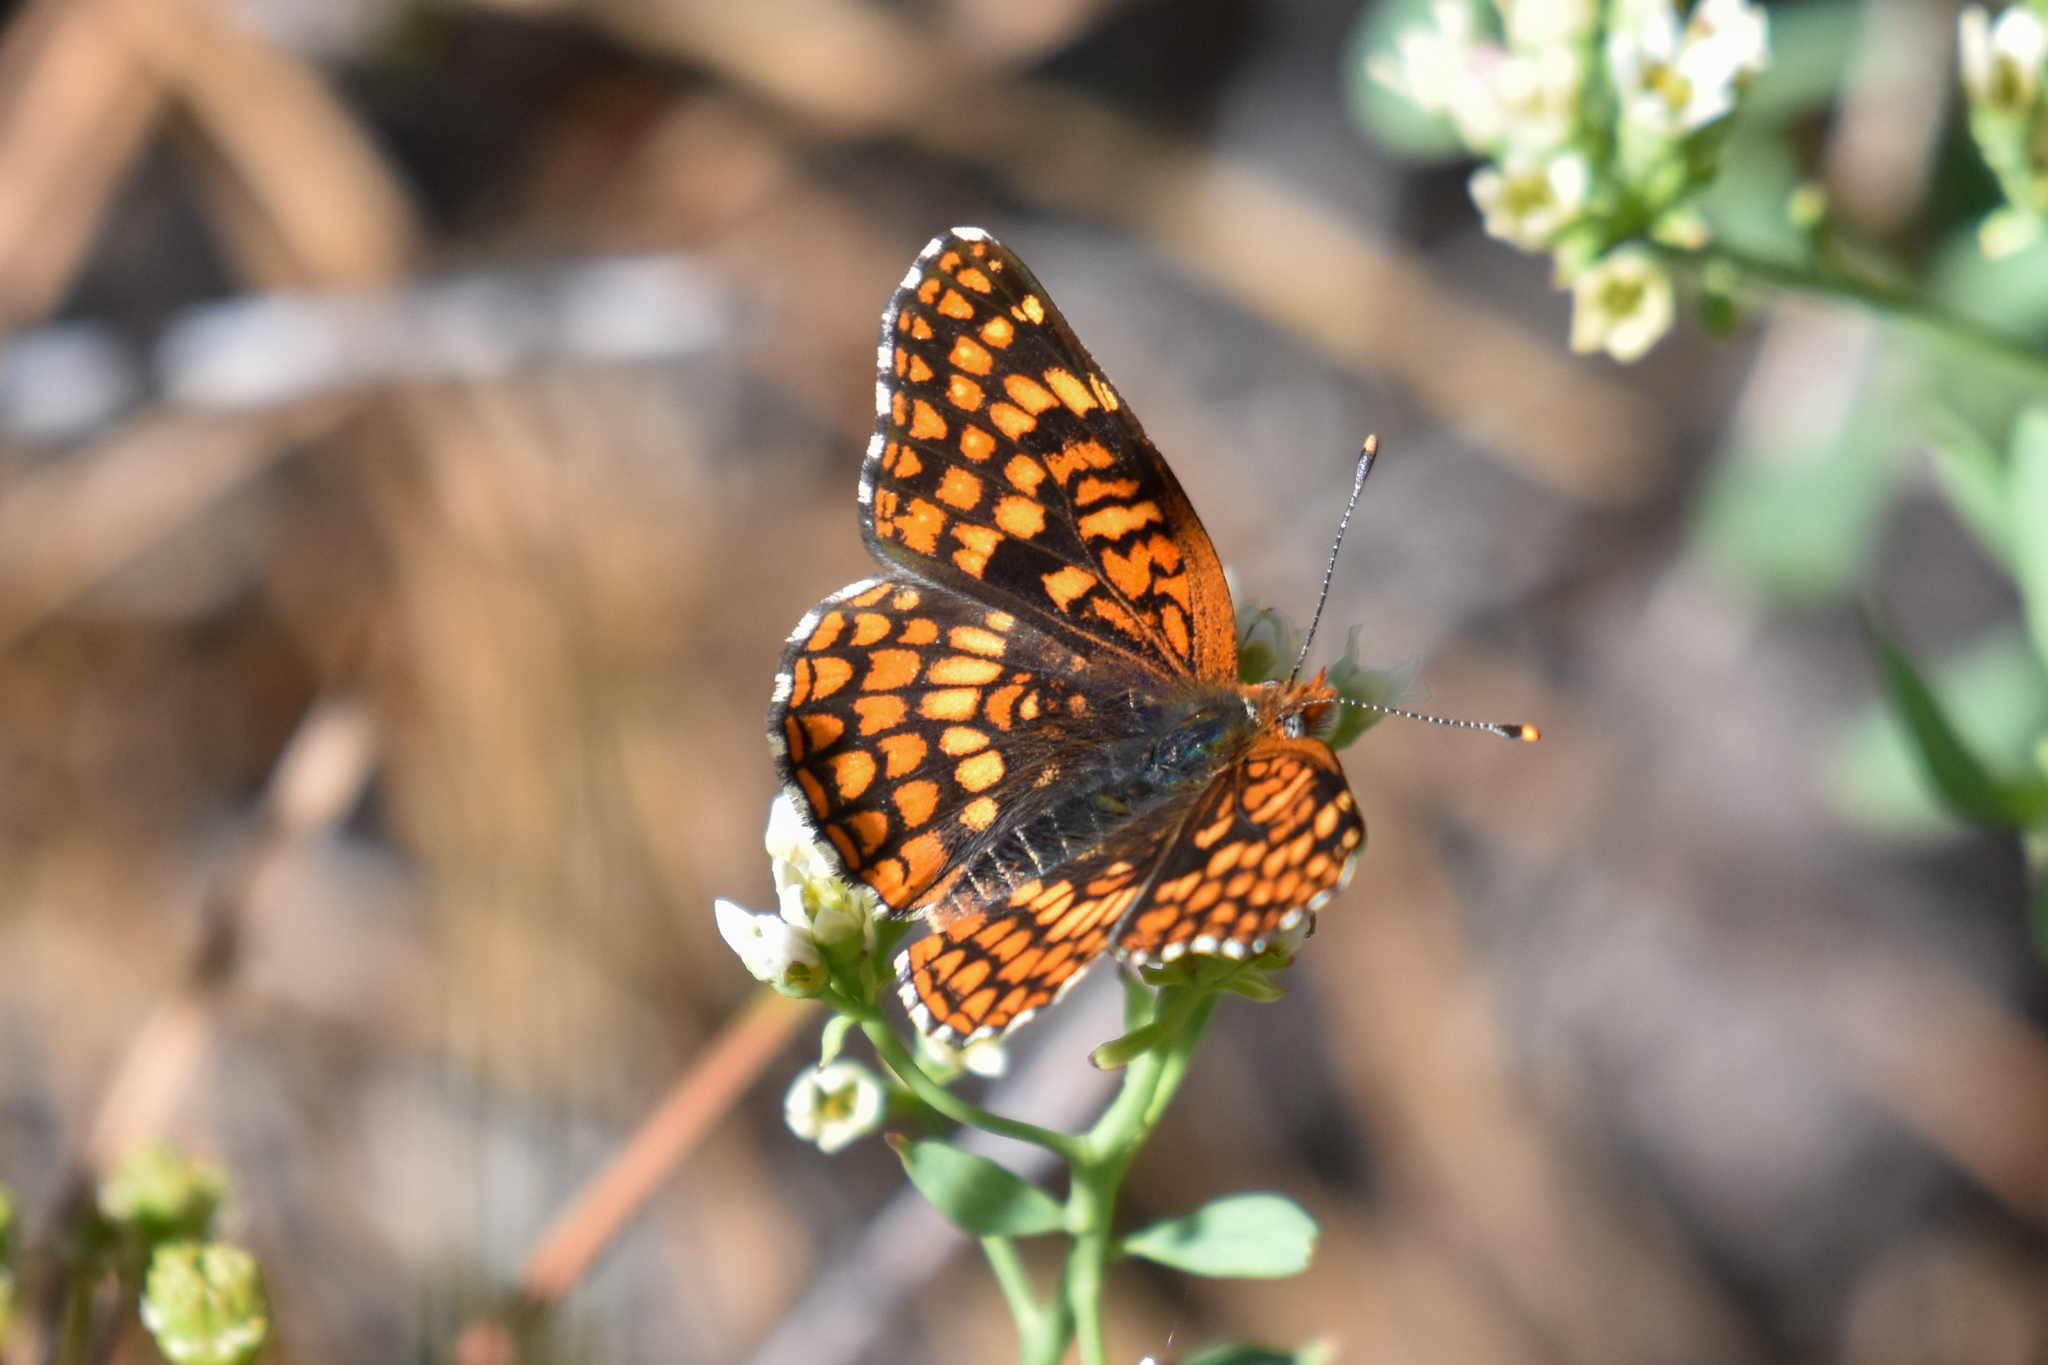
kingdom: Animalia
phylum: Arthropoda
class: Insecta
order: Lepidoptera
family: Nymphalidae
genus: Chlosyne
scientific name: Chlosyne palla
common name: Northern checkerspot
